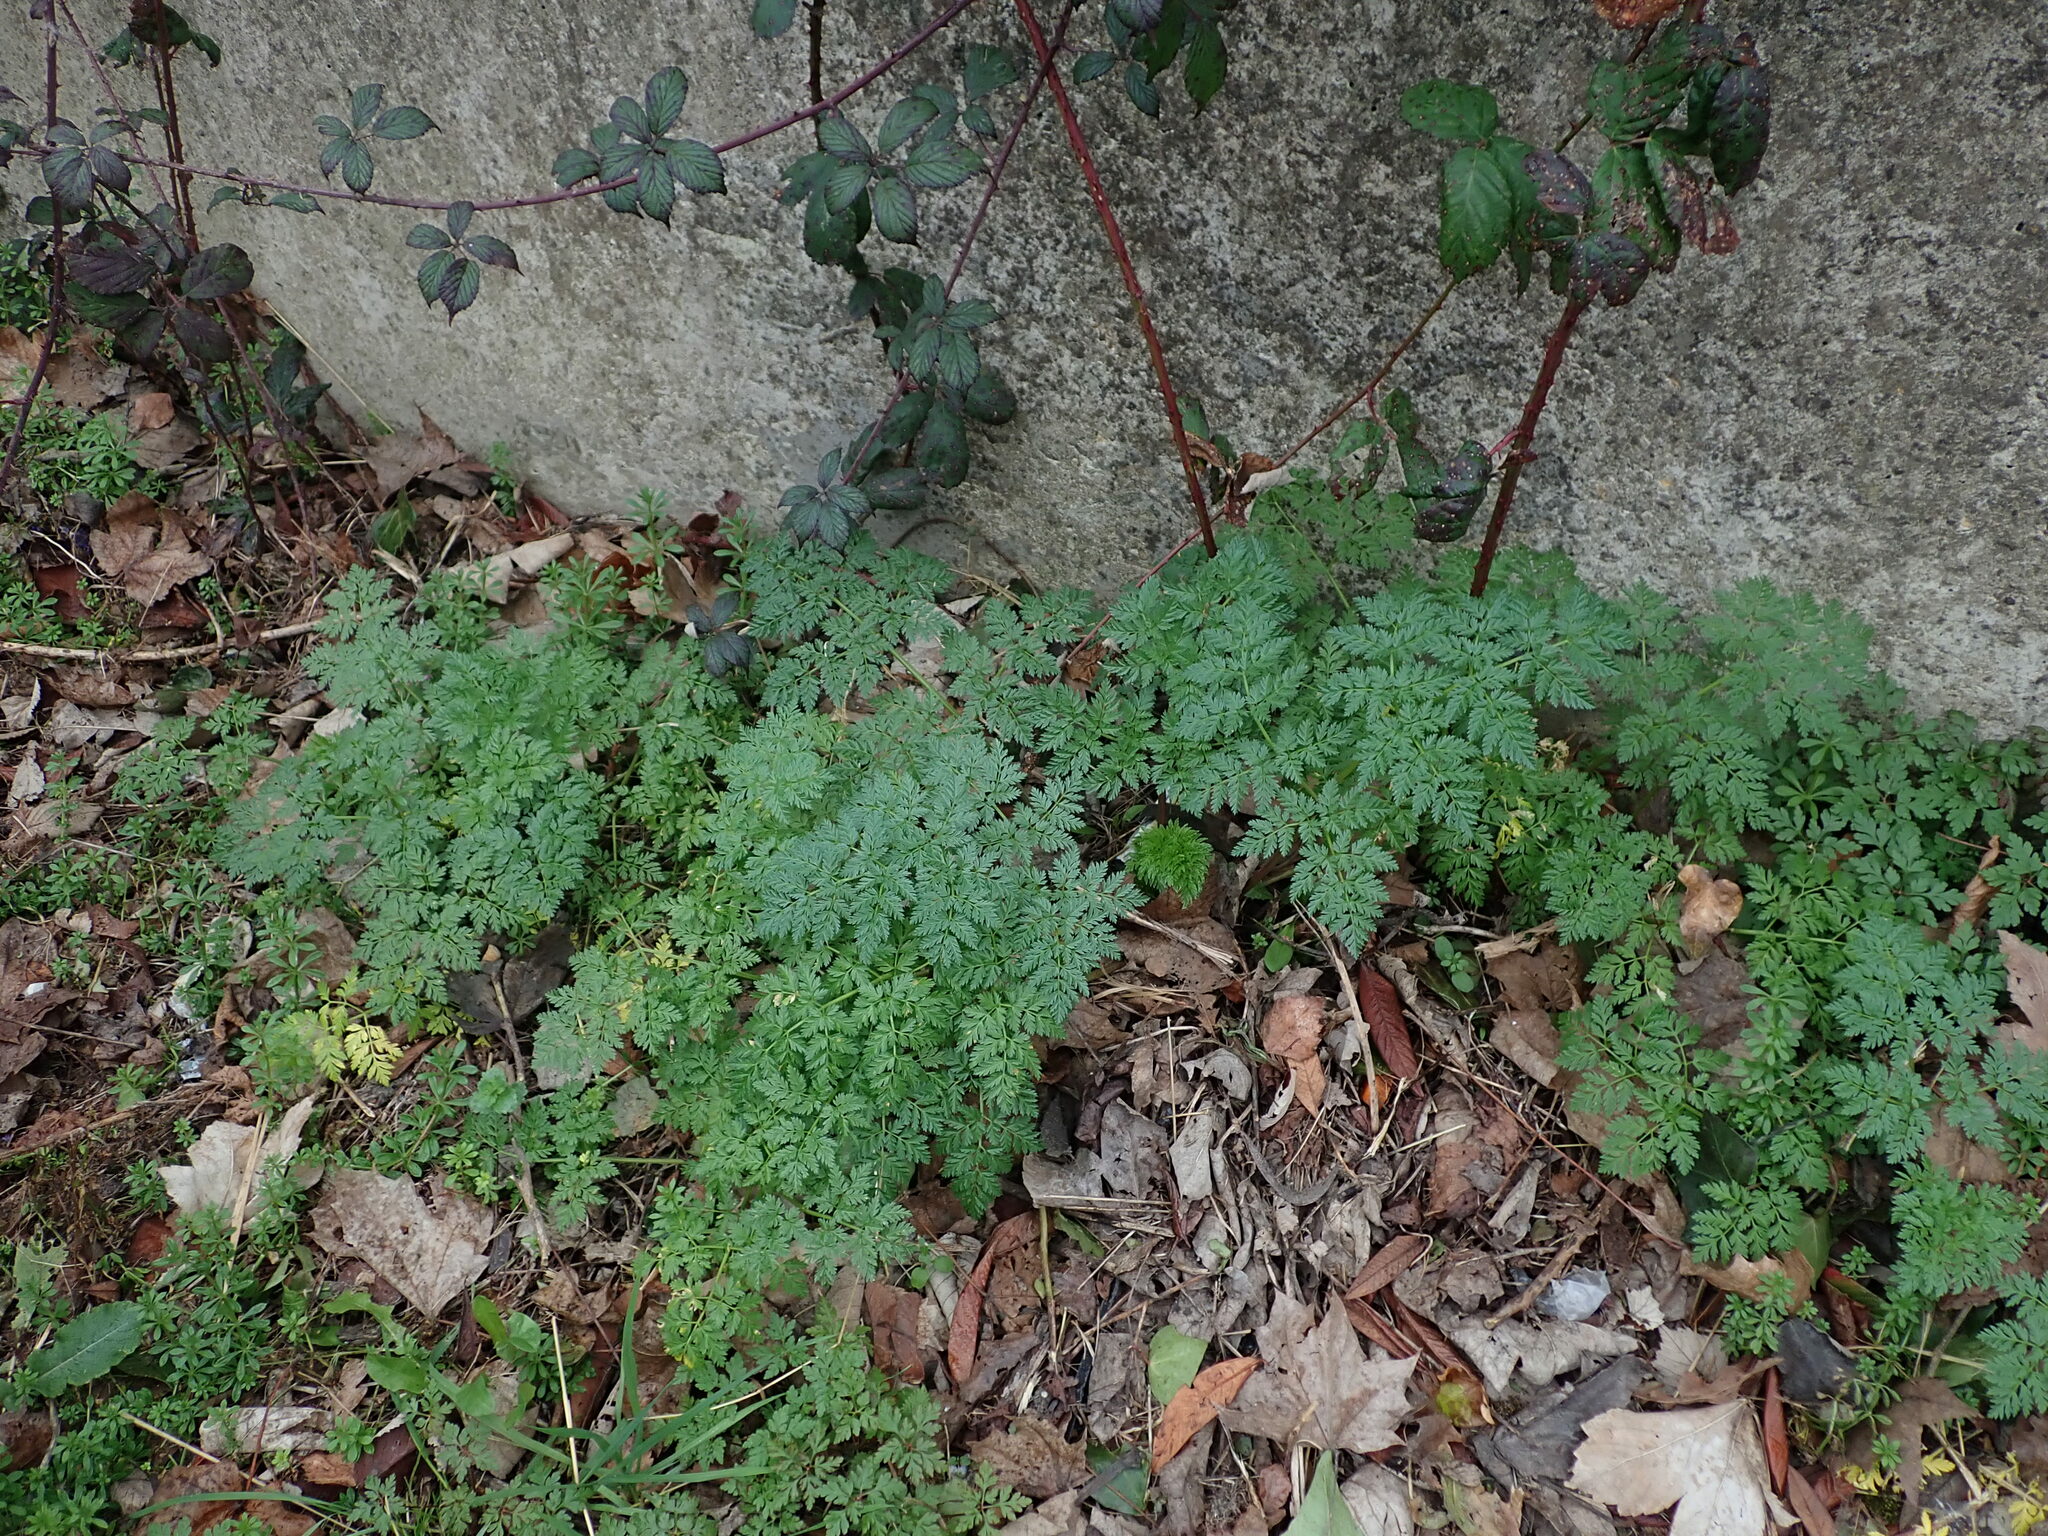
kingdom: Plantae
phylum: Tracheophyta
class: Magnoliopsida
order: Apiales
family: Apiaceae
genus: Conium
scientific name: Conium maculatum
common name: Hemlock
